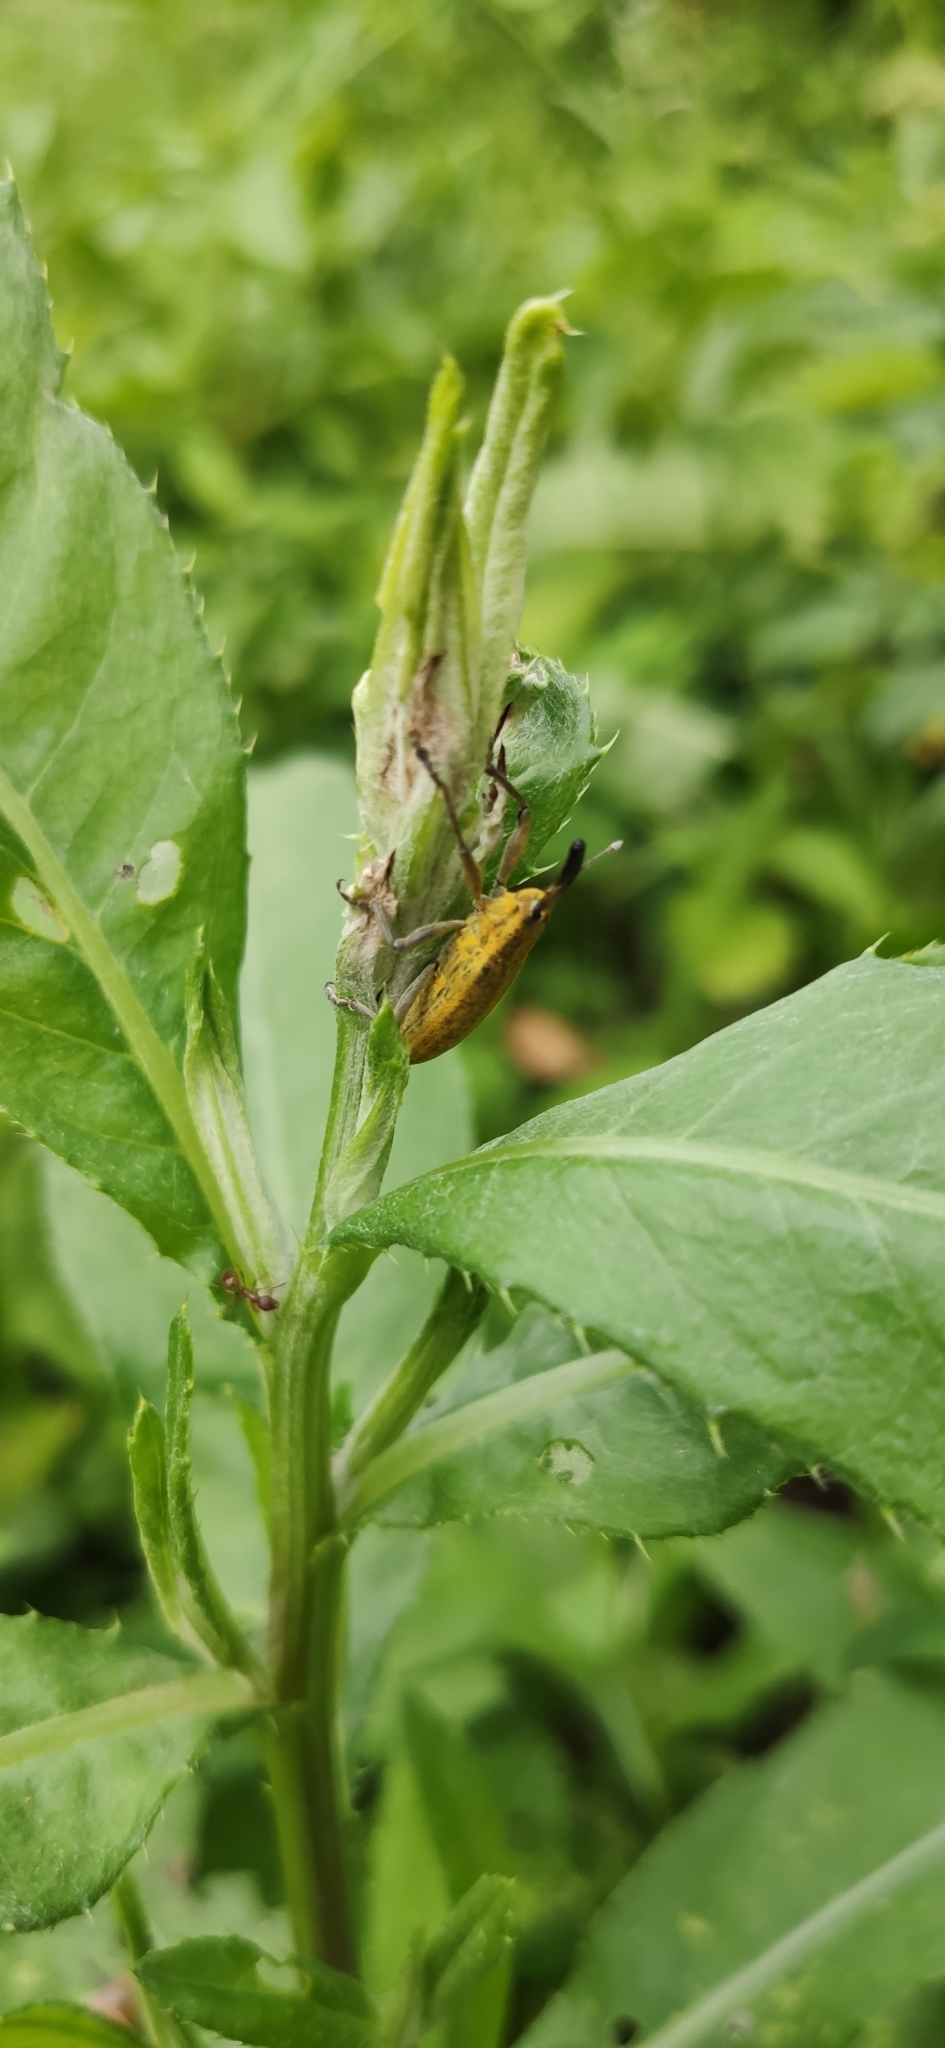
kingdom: Animalia
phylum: Arthropoda
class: Insecta
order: Coleoptera
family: Curculionidae
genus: Lixus
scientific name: Lixus iridis
